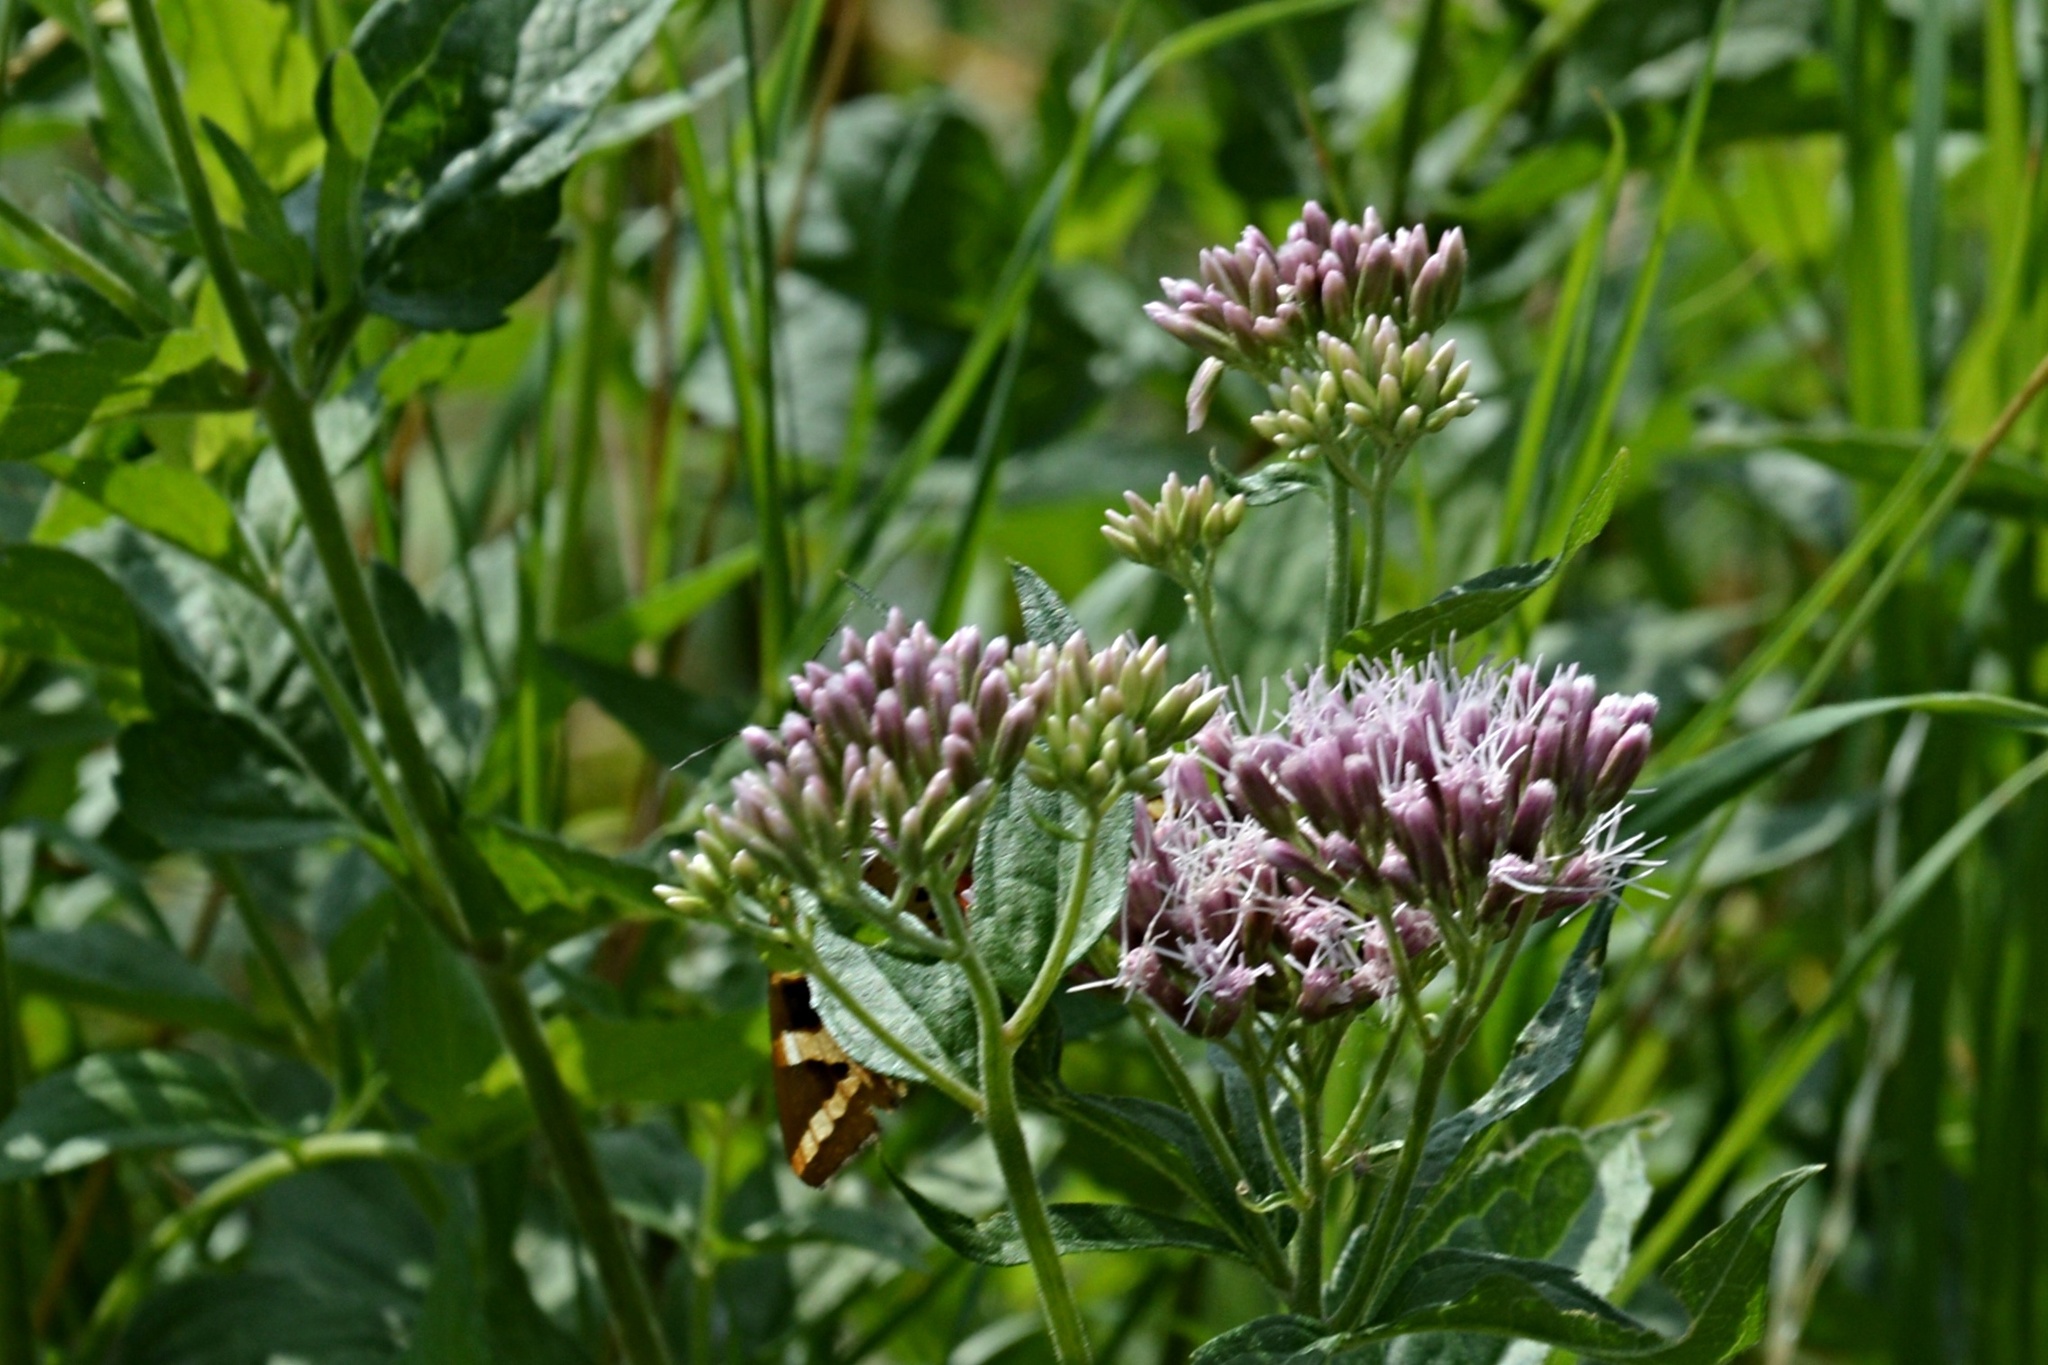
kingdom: Plantae
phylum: Tracheophyta
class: Magnoliopsida
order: Asterales
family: Asteraceae
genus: Eupatorium
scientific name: Eupatorium cannabinum
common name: Hemp-agrimony
